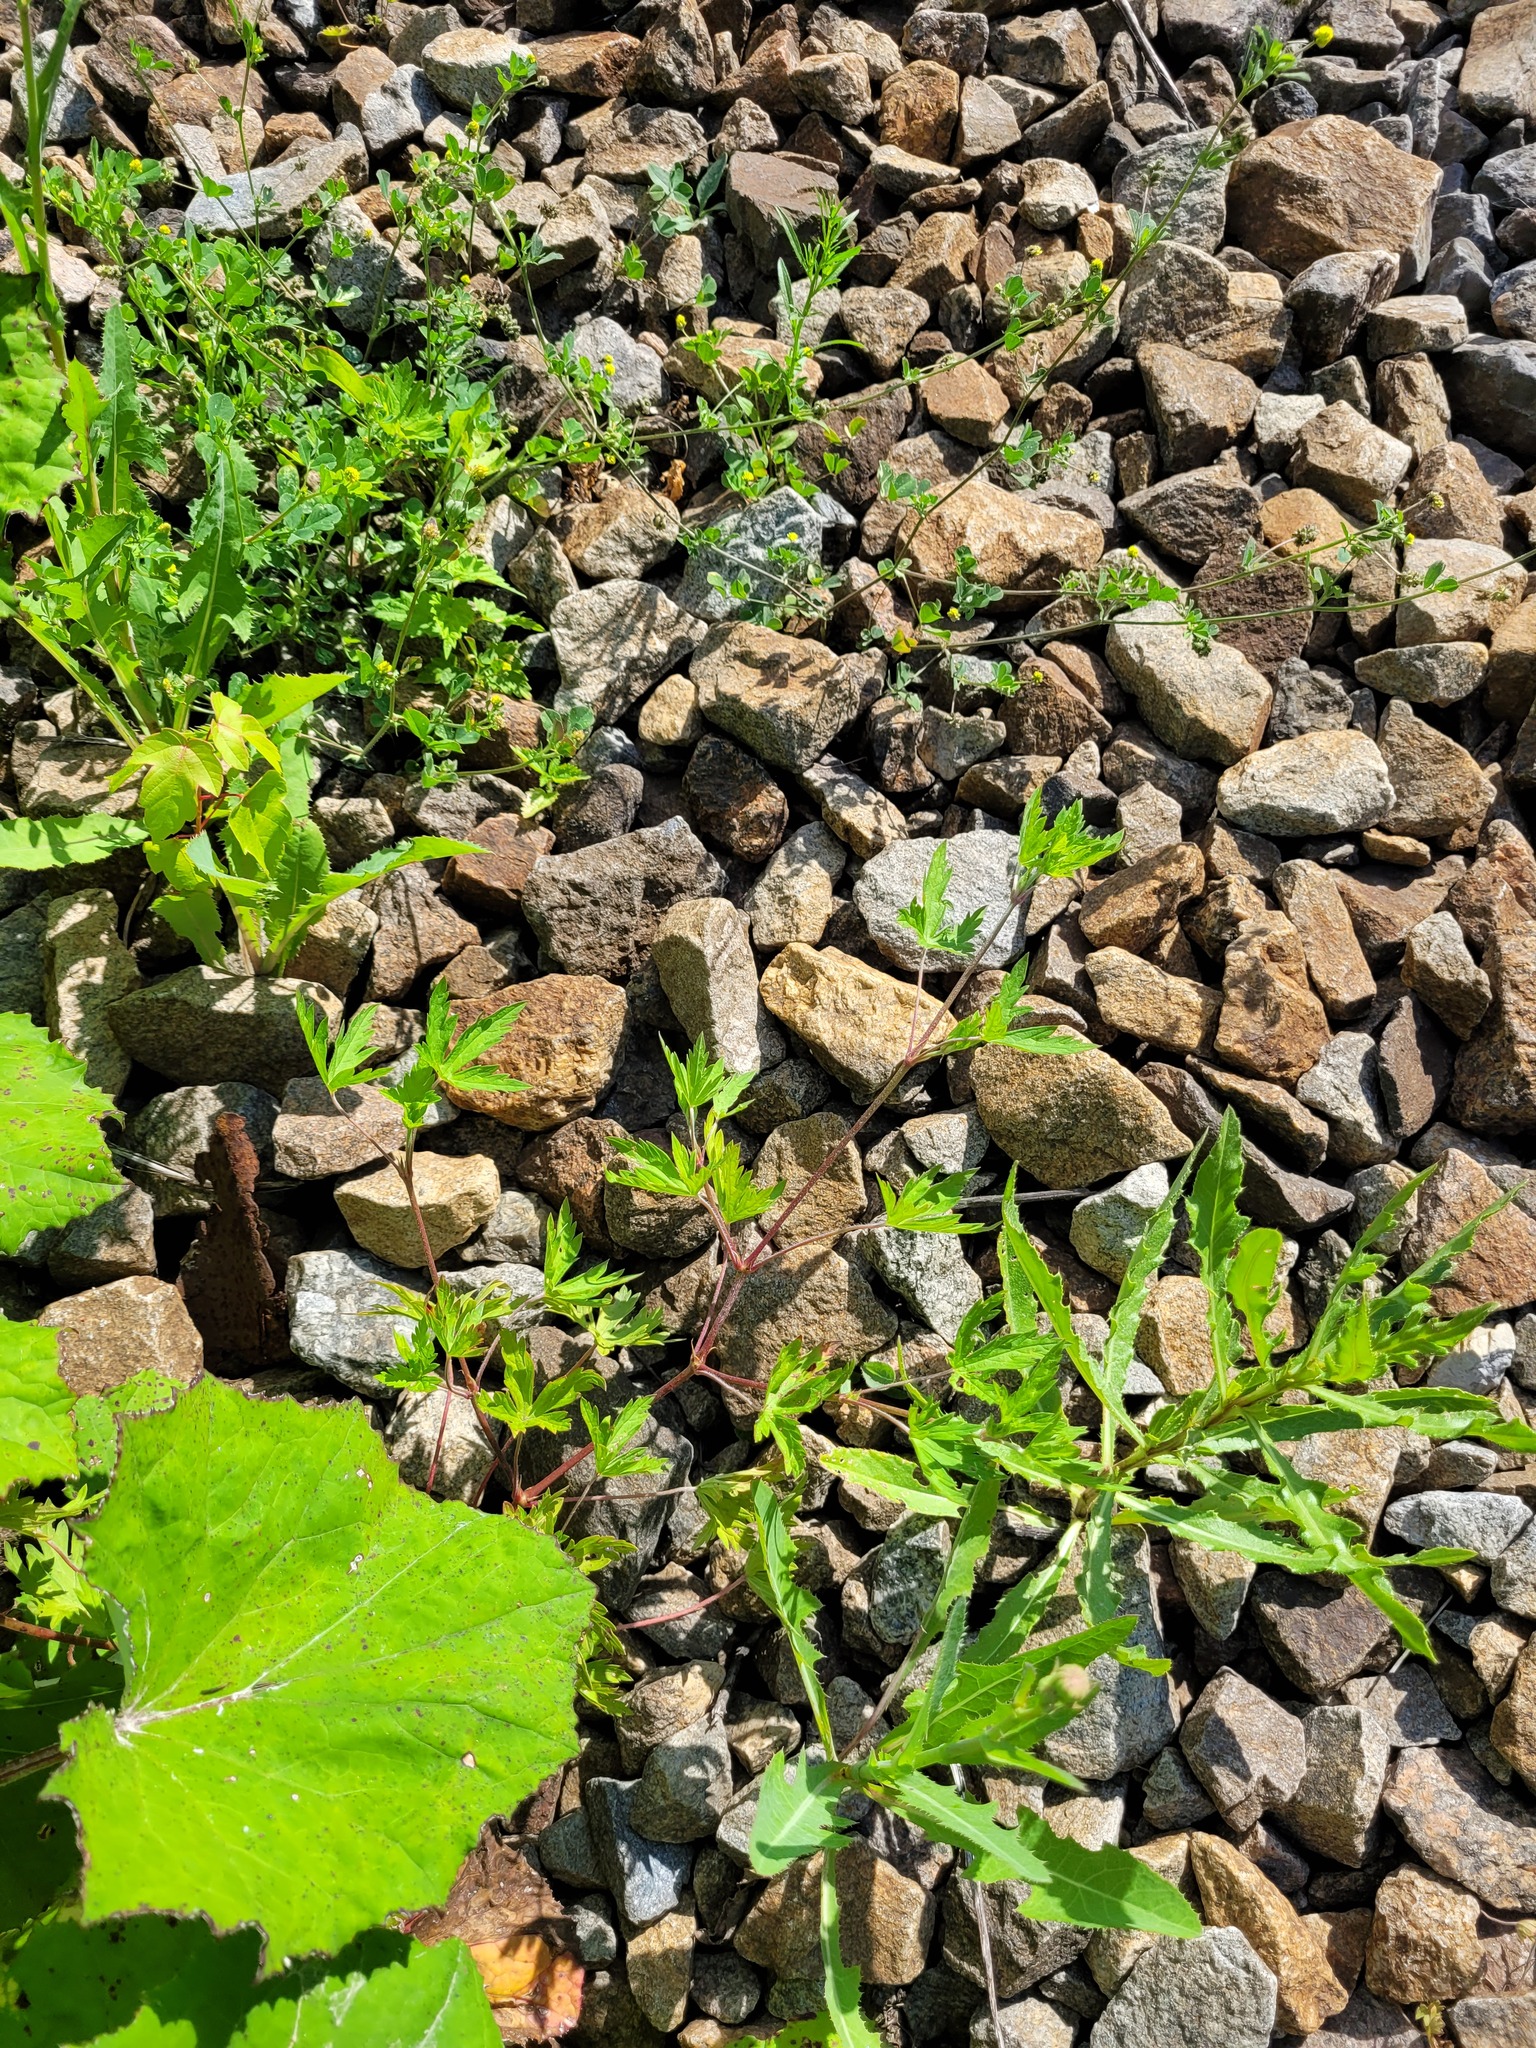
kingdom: Plantae
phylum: Tracheophyta
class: Magnoliopsida
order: Geraniales
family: Geraniaceae
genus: Geranium
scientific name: Geranium sibiricum
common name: Siberian crane's-bill
